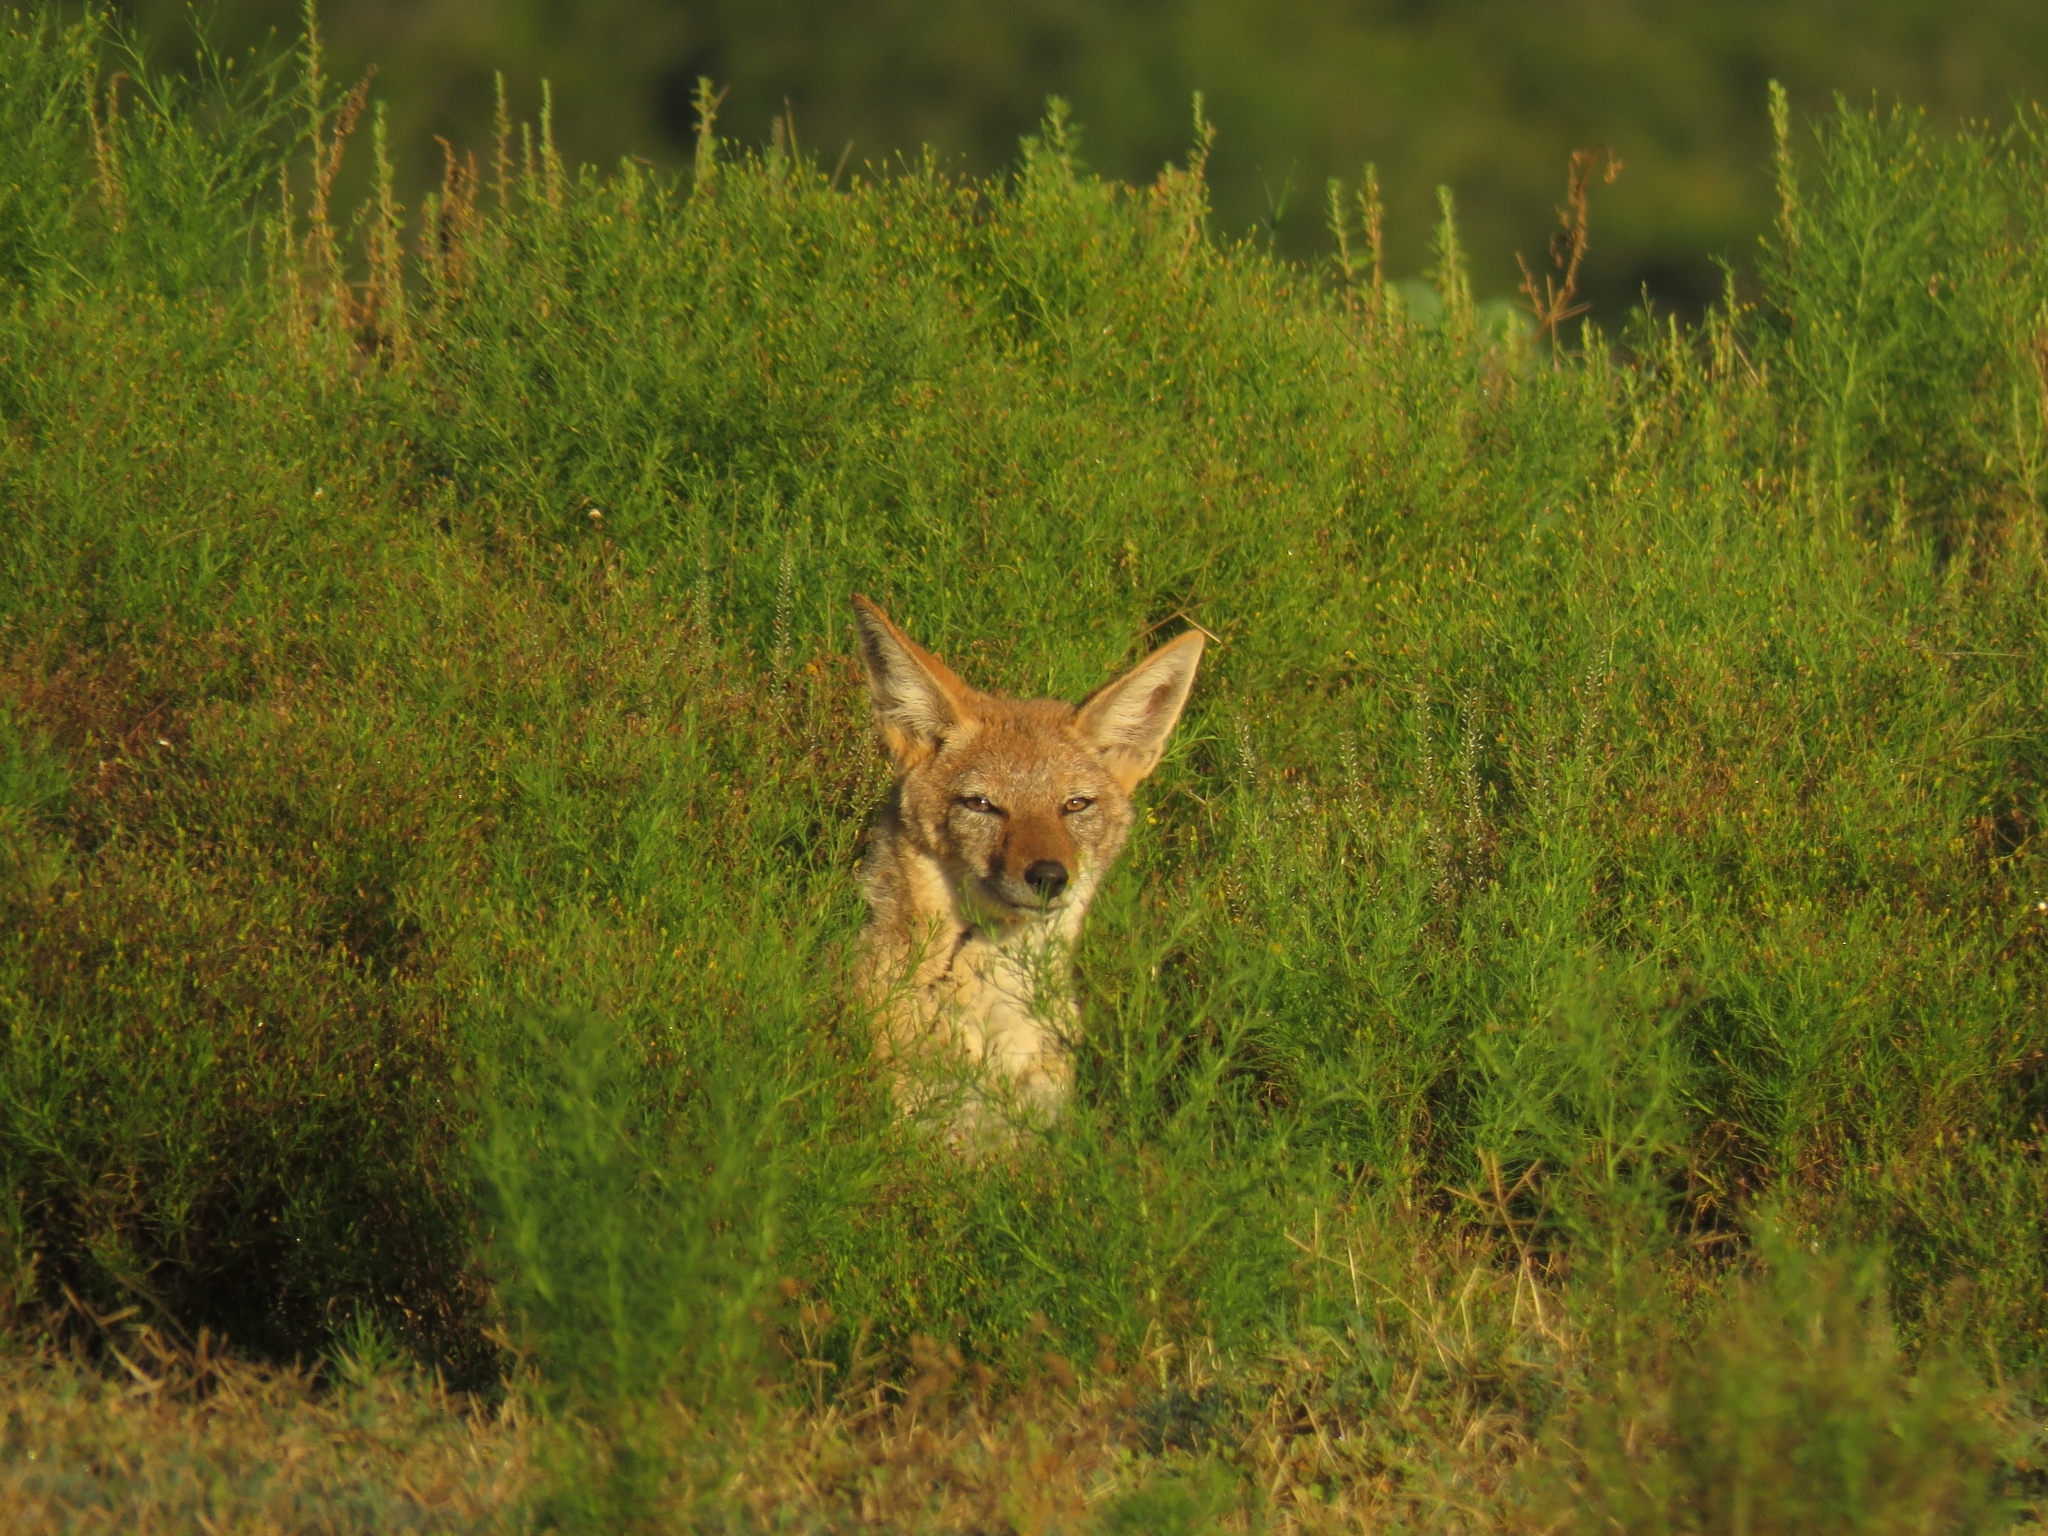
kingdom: Animalia
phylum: Chordata
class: Mammalia
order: Carnivora
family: Canidae
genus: Lupulella
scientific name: Lupulella
